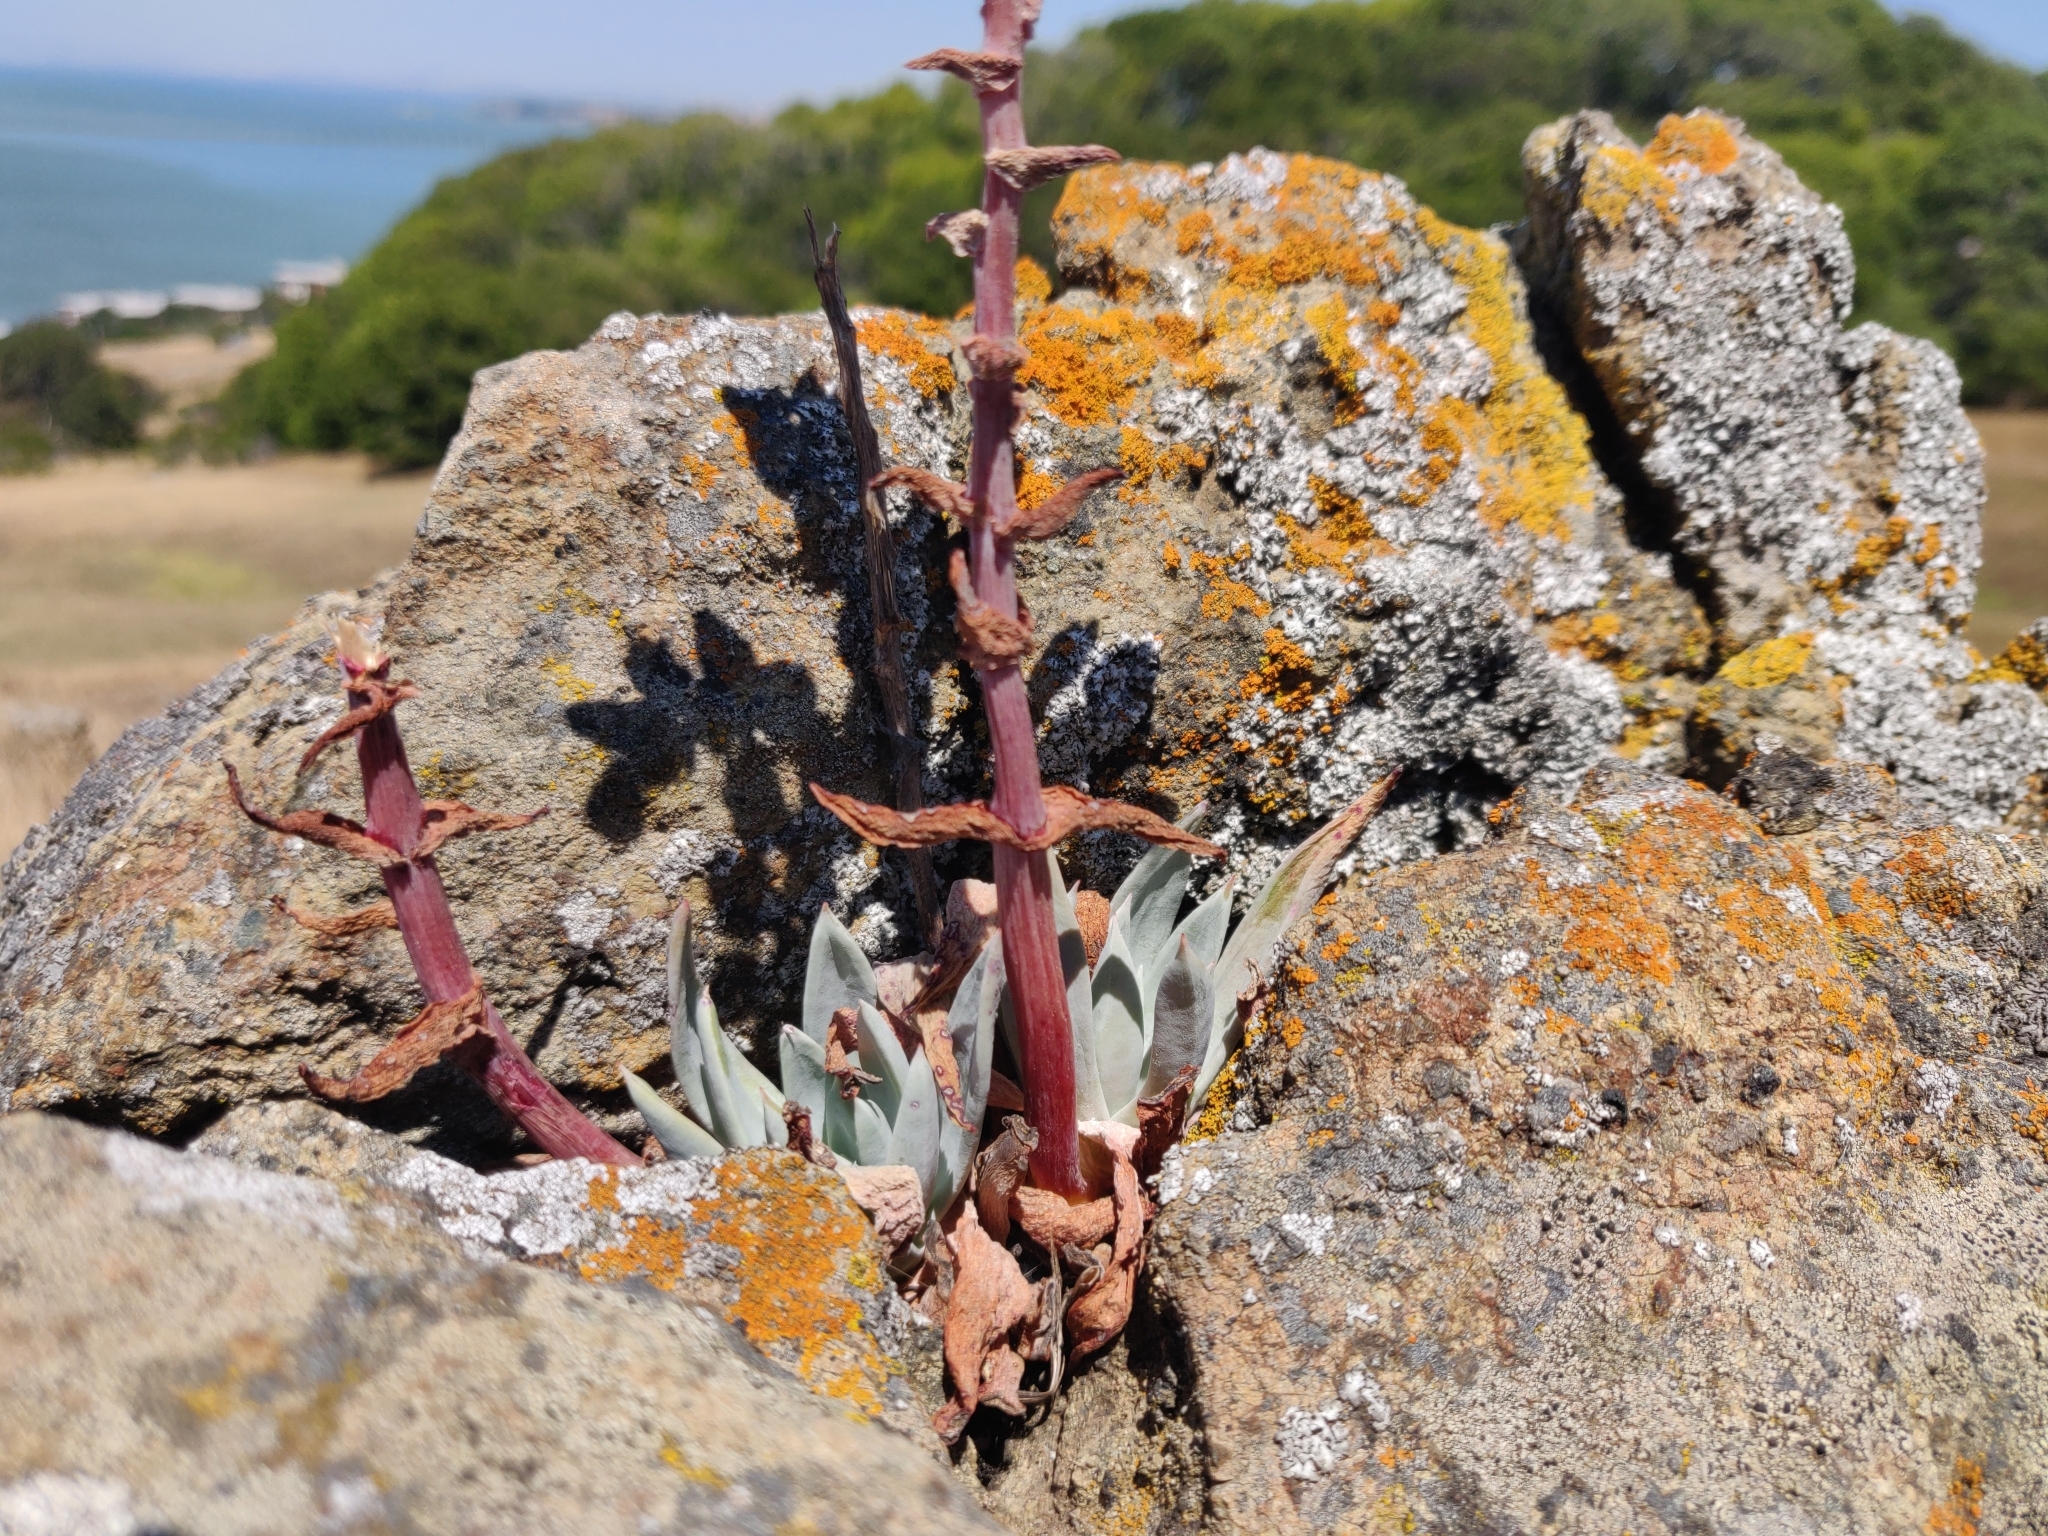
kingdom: Plantae
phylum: Tracheophyta
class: Magnoliopsida
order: Saxifragales
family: Crassulaceae
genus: Dudleya
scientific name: Dudleya farinosa
